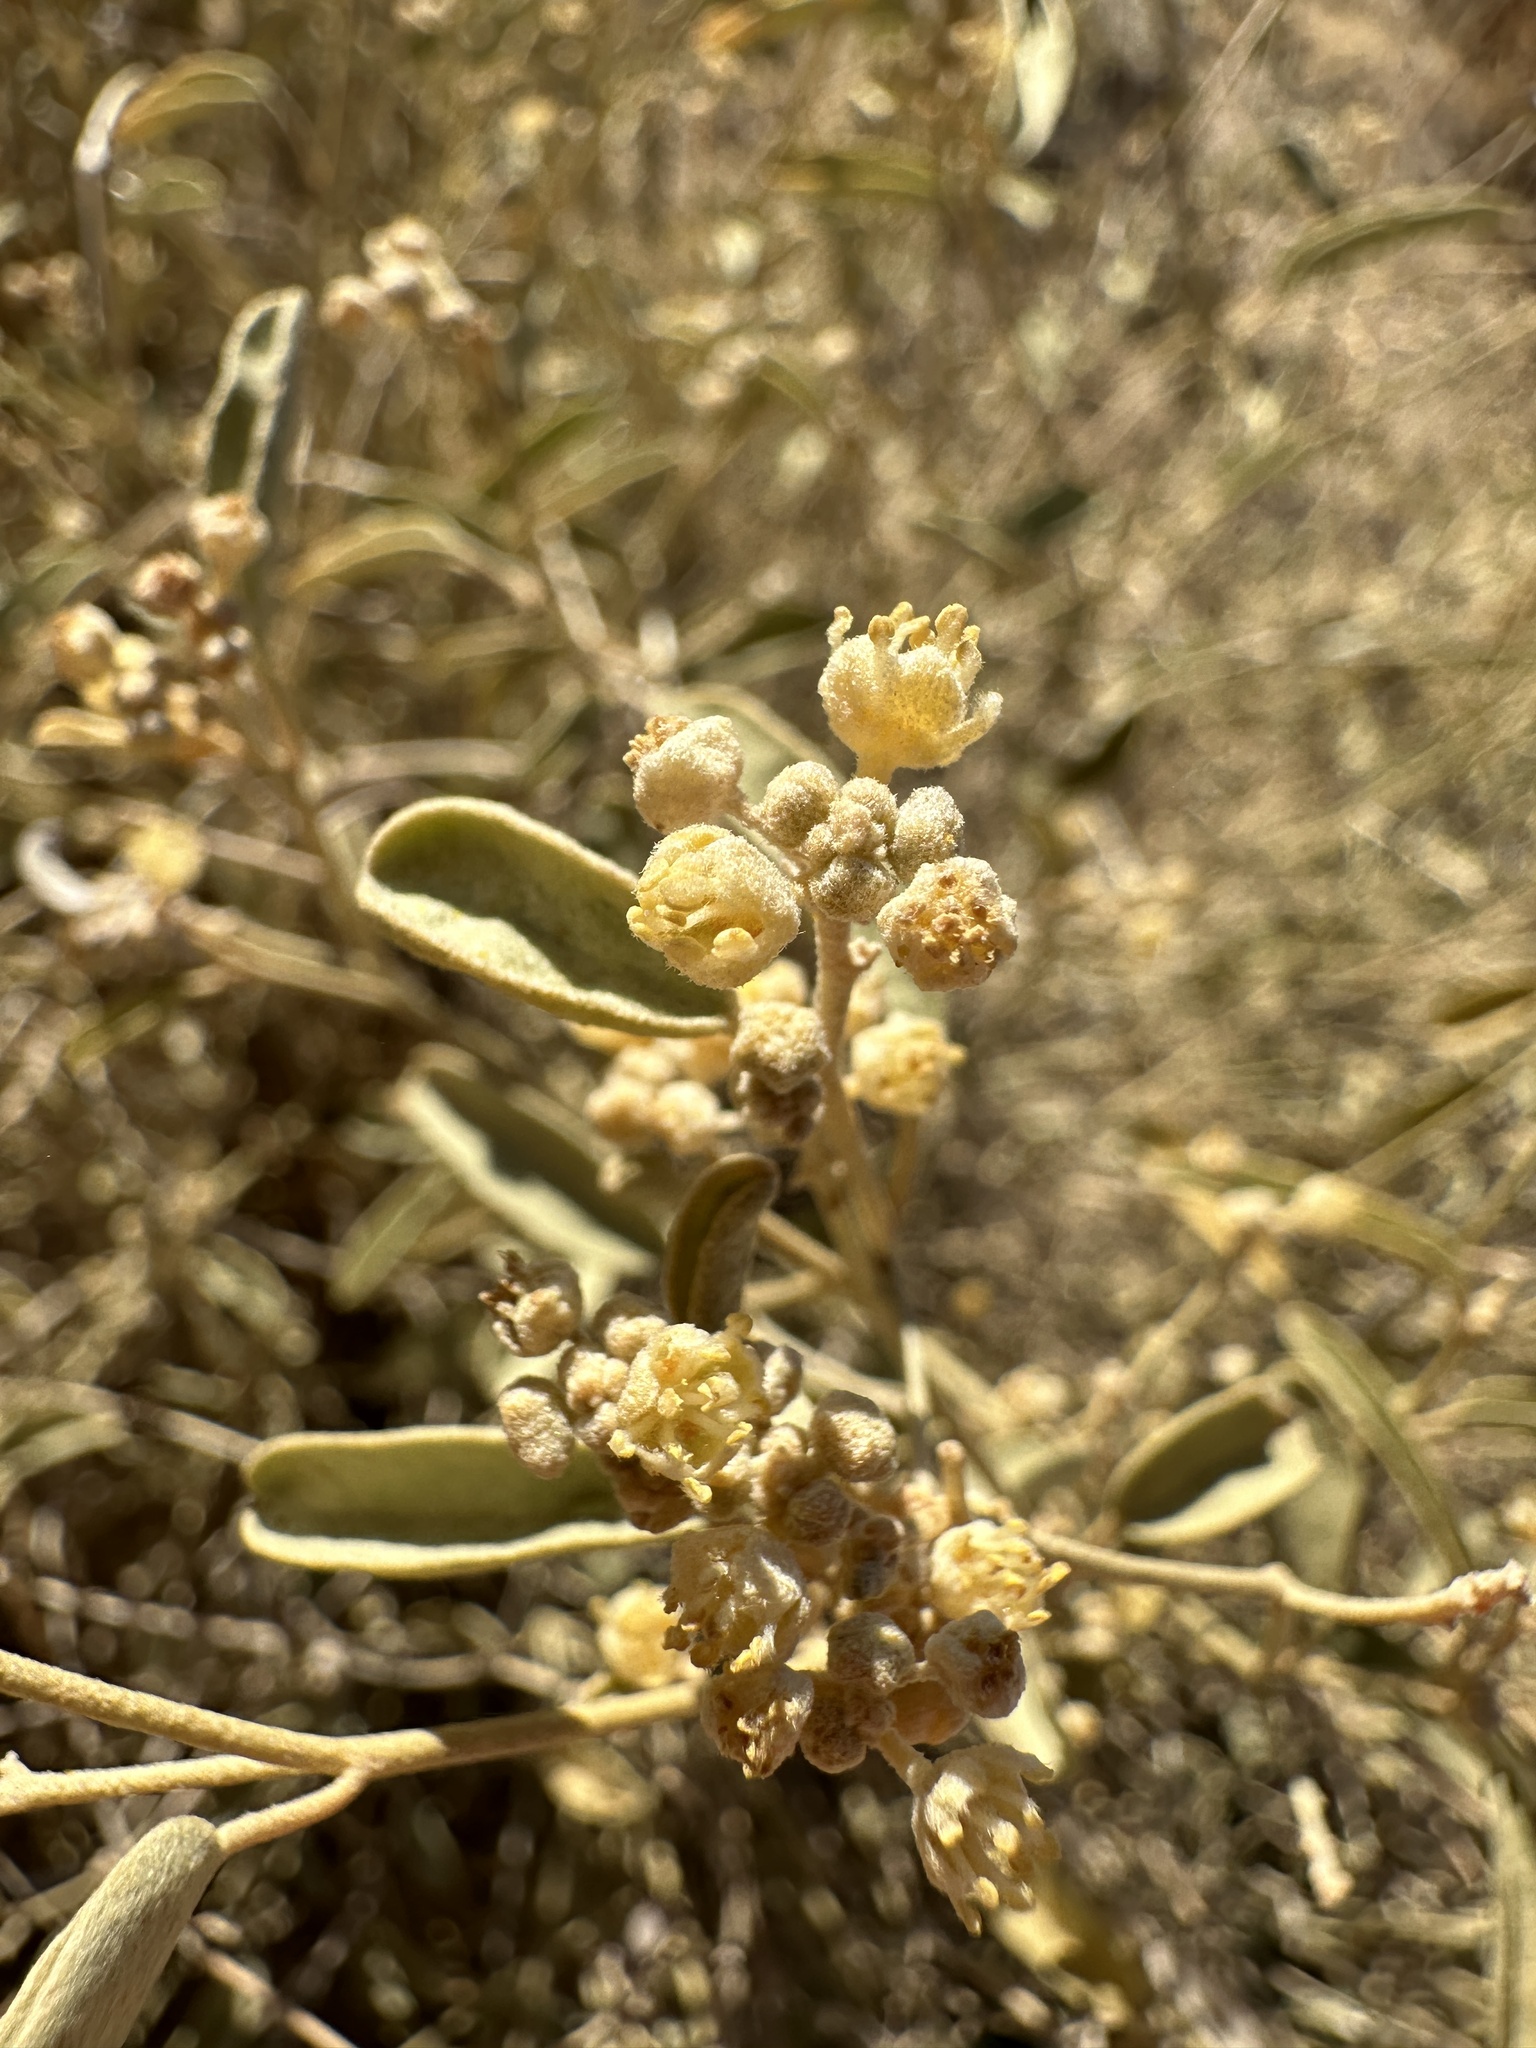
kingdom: Plantae
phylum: Tracheophyta
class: Magnoliopsida
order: Malpighiales
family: Euphorbiaceae
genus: Croton
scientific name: Croton californicus
